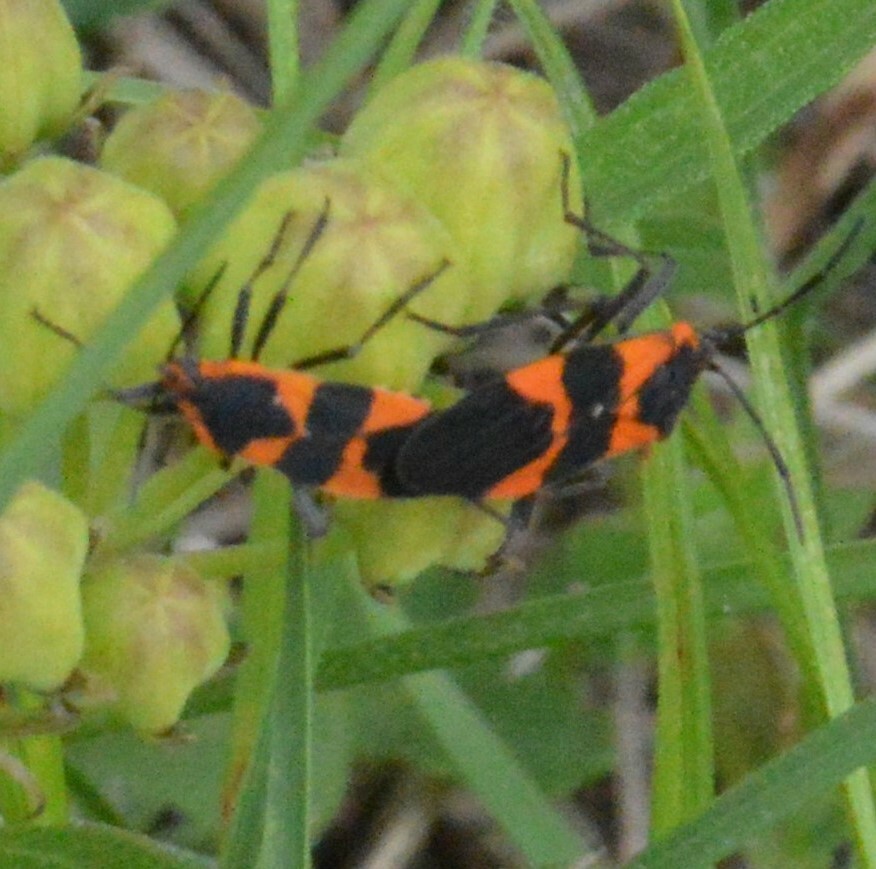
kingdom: Animalia
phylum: Arthropoda
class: Insecta
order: Hemiptera
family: Lygaeidae
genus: Oncopeltus
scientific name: Oncopeltus fasciatus
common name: Large milkweed bug
